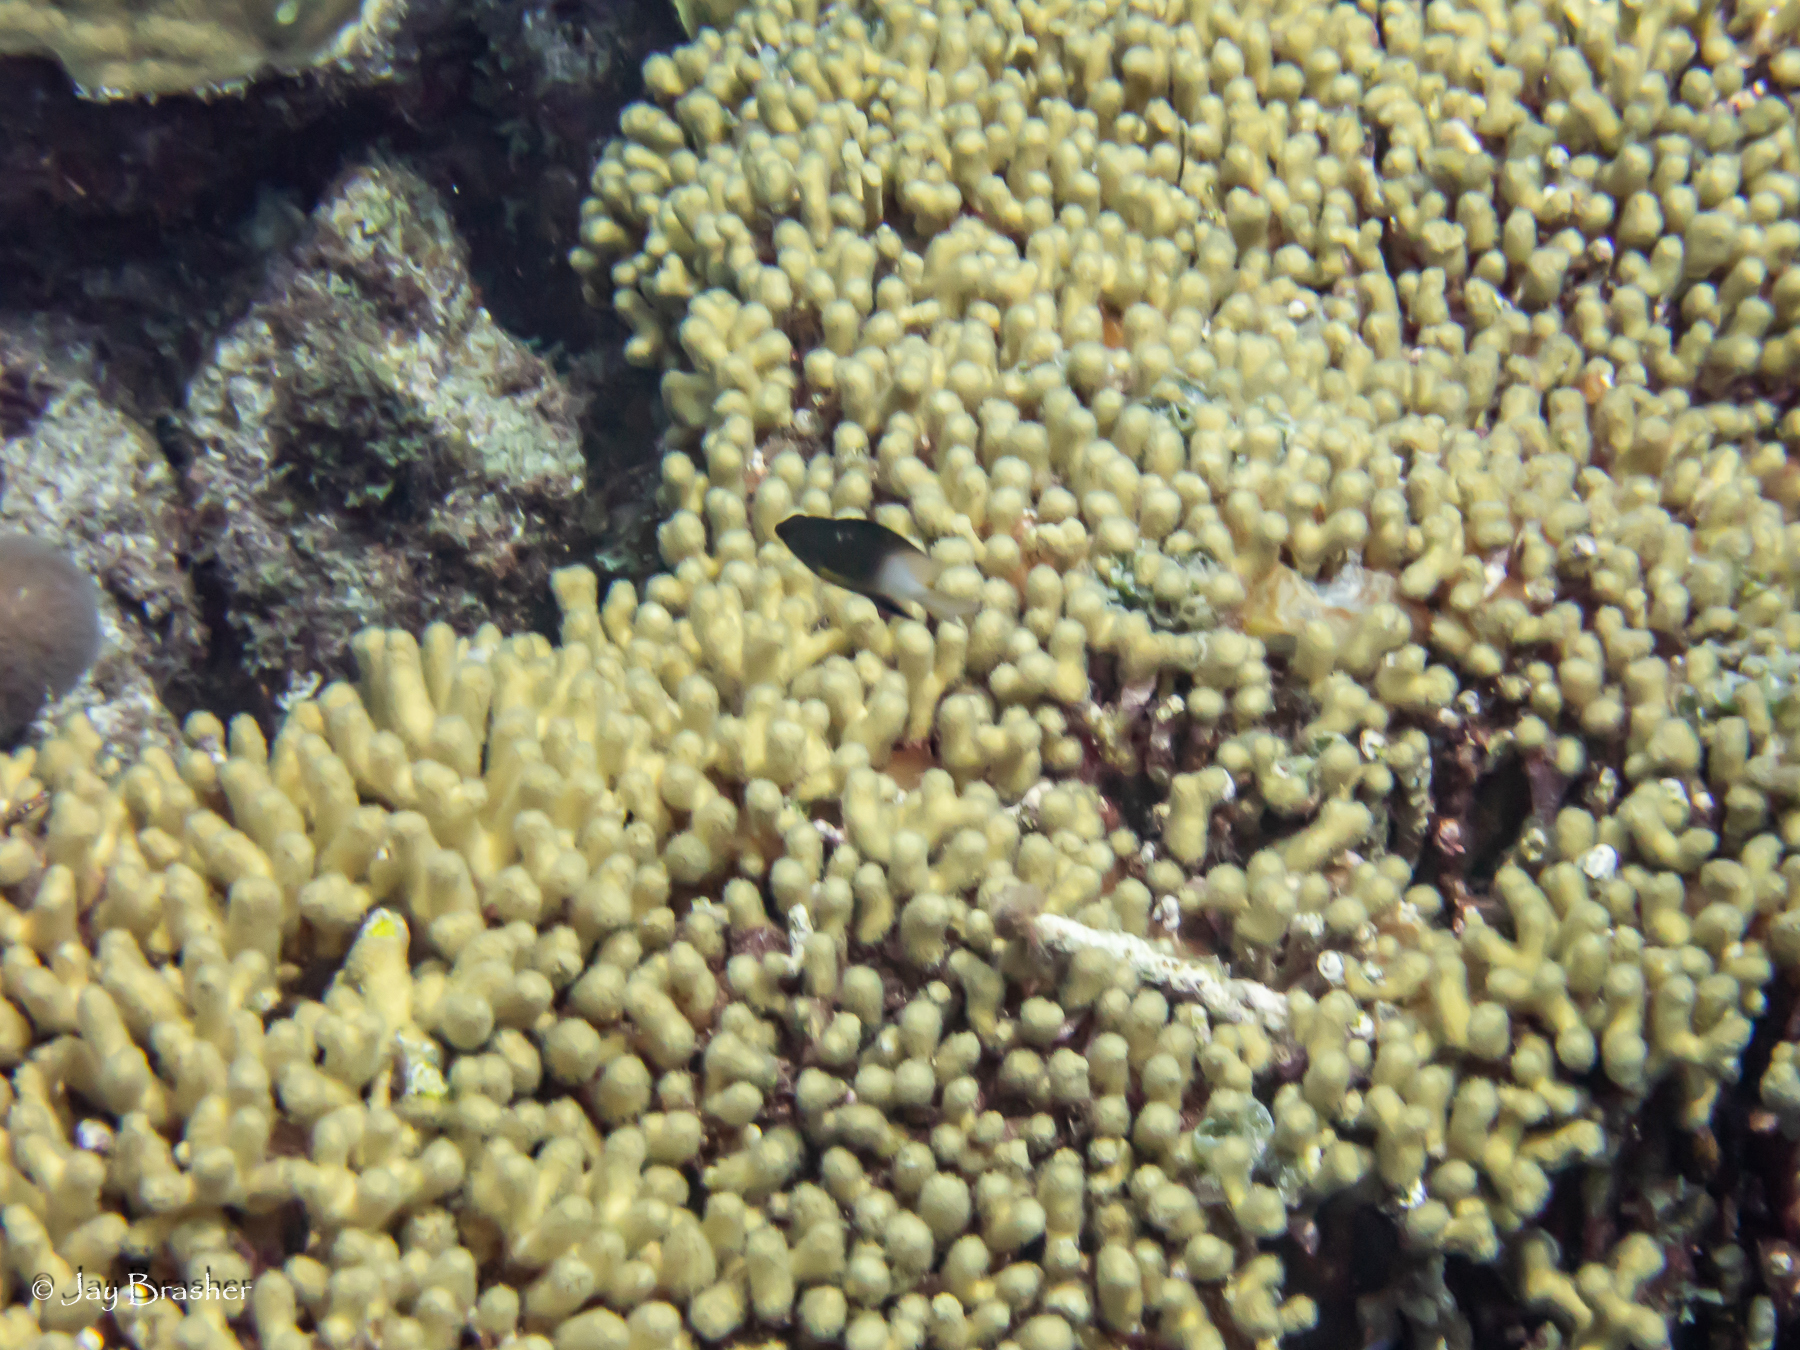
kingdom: Animalia
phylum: Chordata
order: Perciformes
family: Pomacentridae
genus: Stegastes
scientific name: Stegastes partitus
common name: Bicolor damselfish
